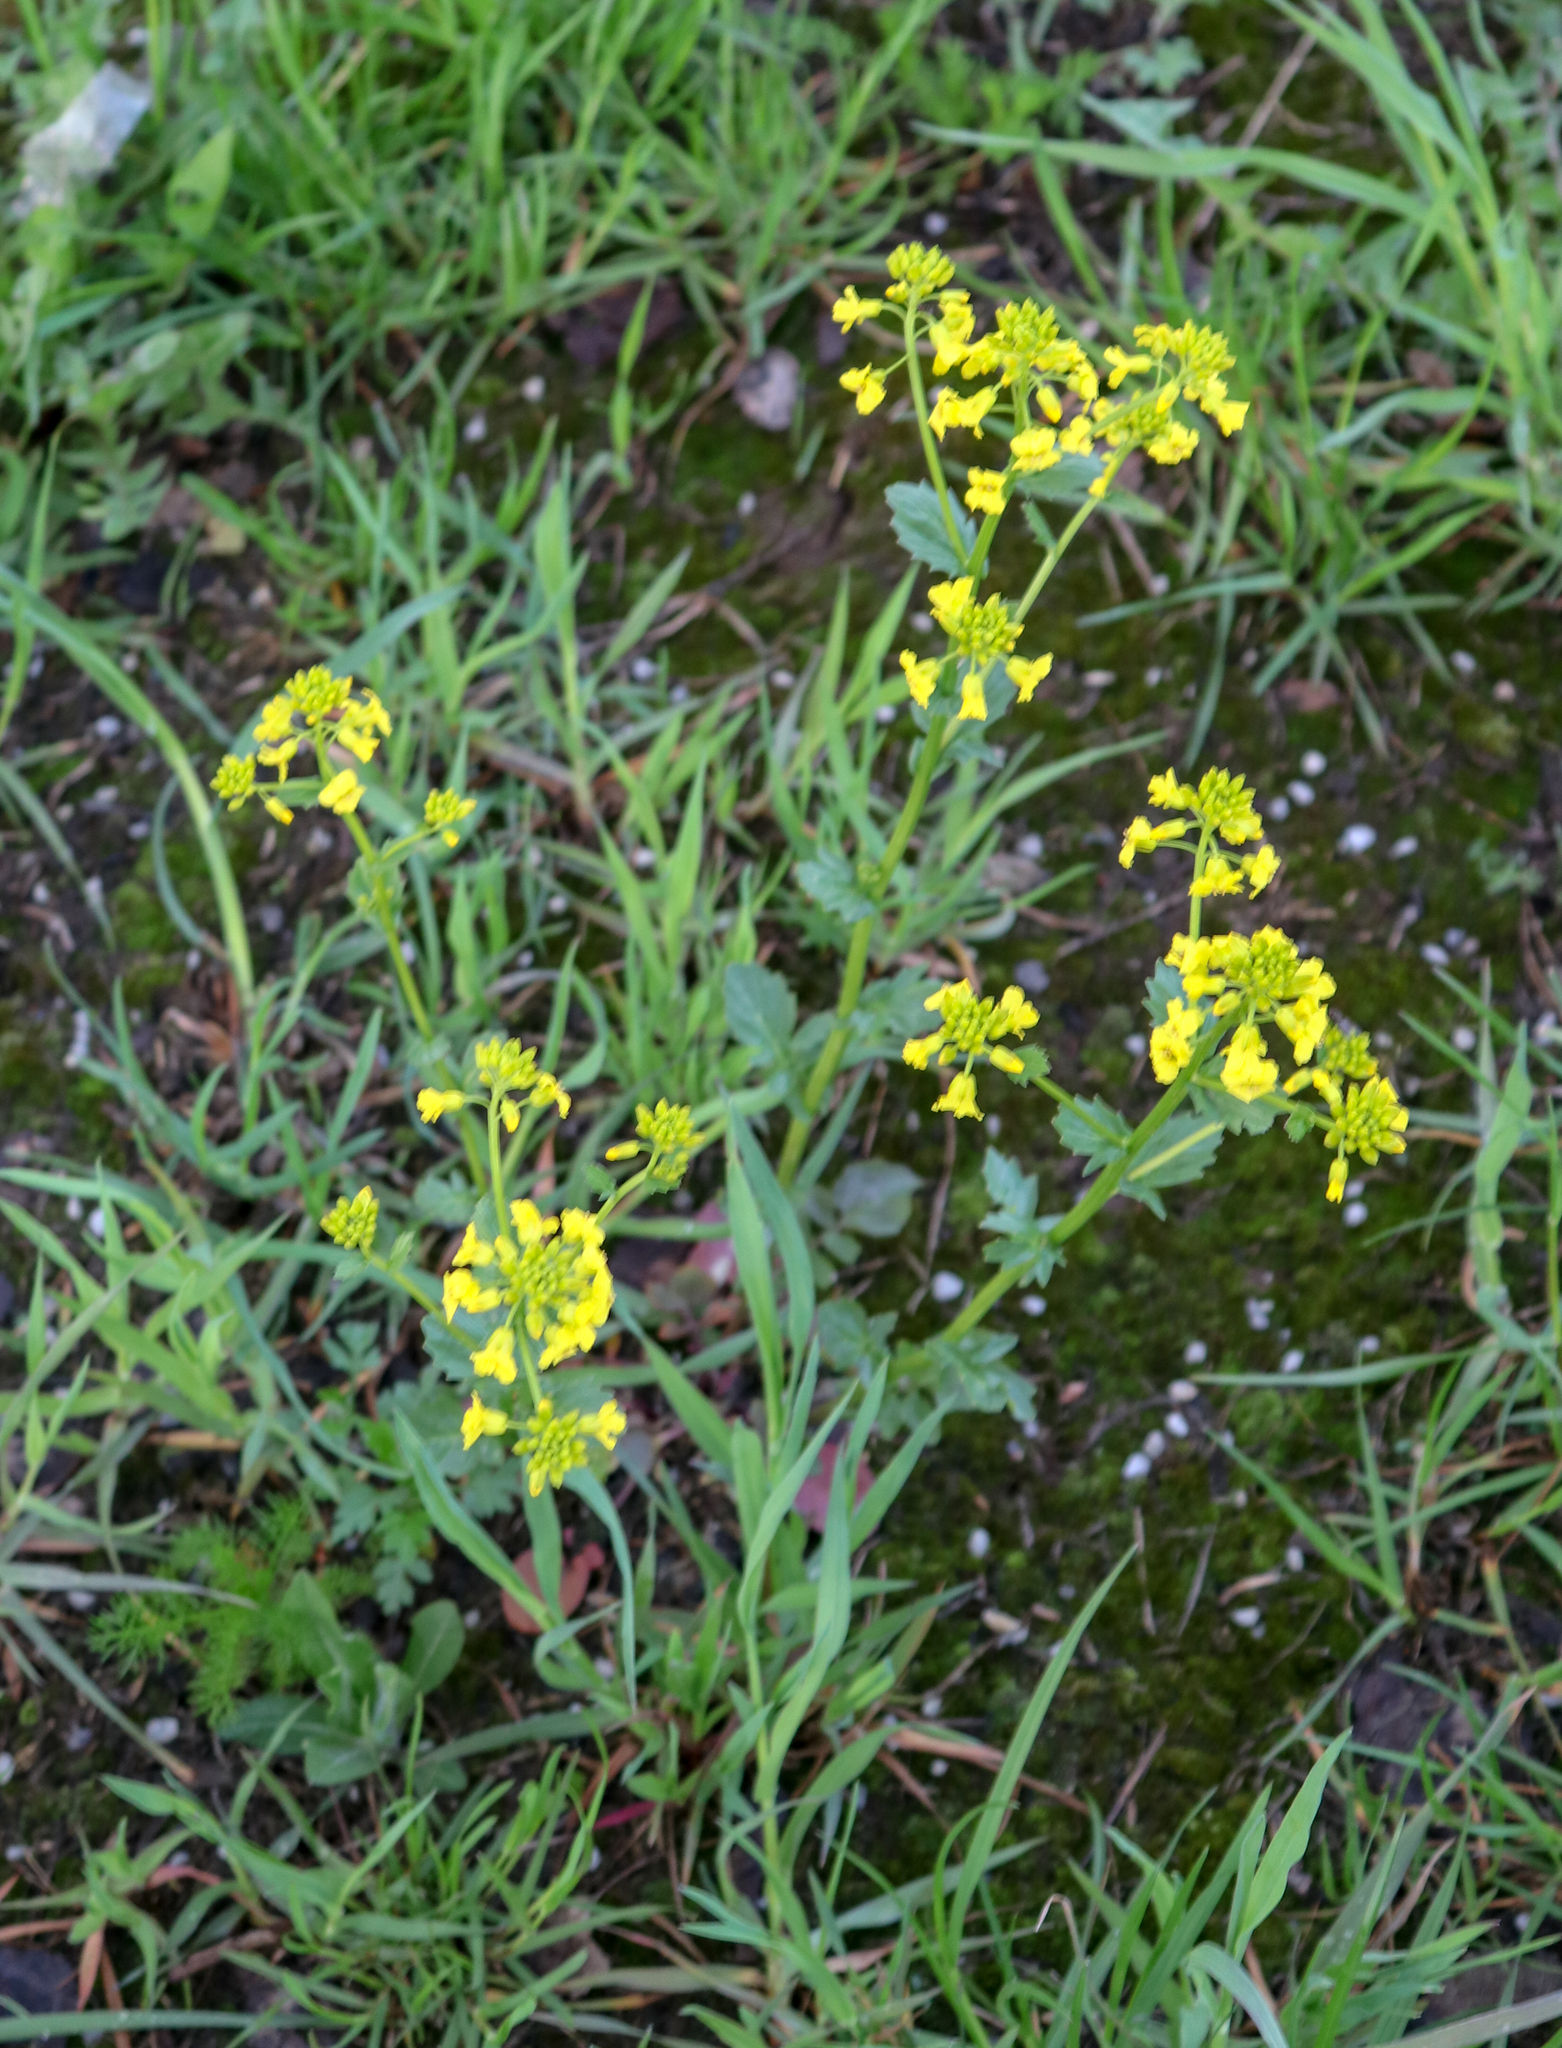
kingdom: Plantae
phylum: Tracheophyta
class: Magnoliopsida
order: Brassicales
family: Brassicaceae
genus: Barbarea
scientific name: Barbarea vulgaris
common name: Cressy-greens
